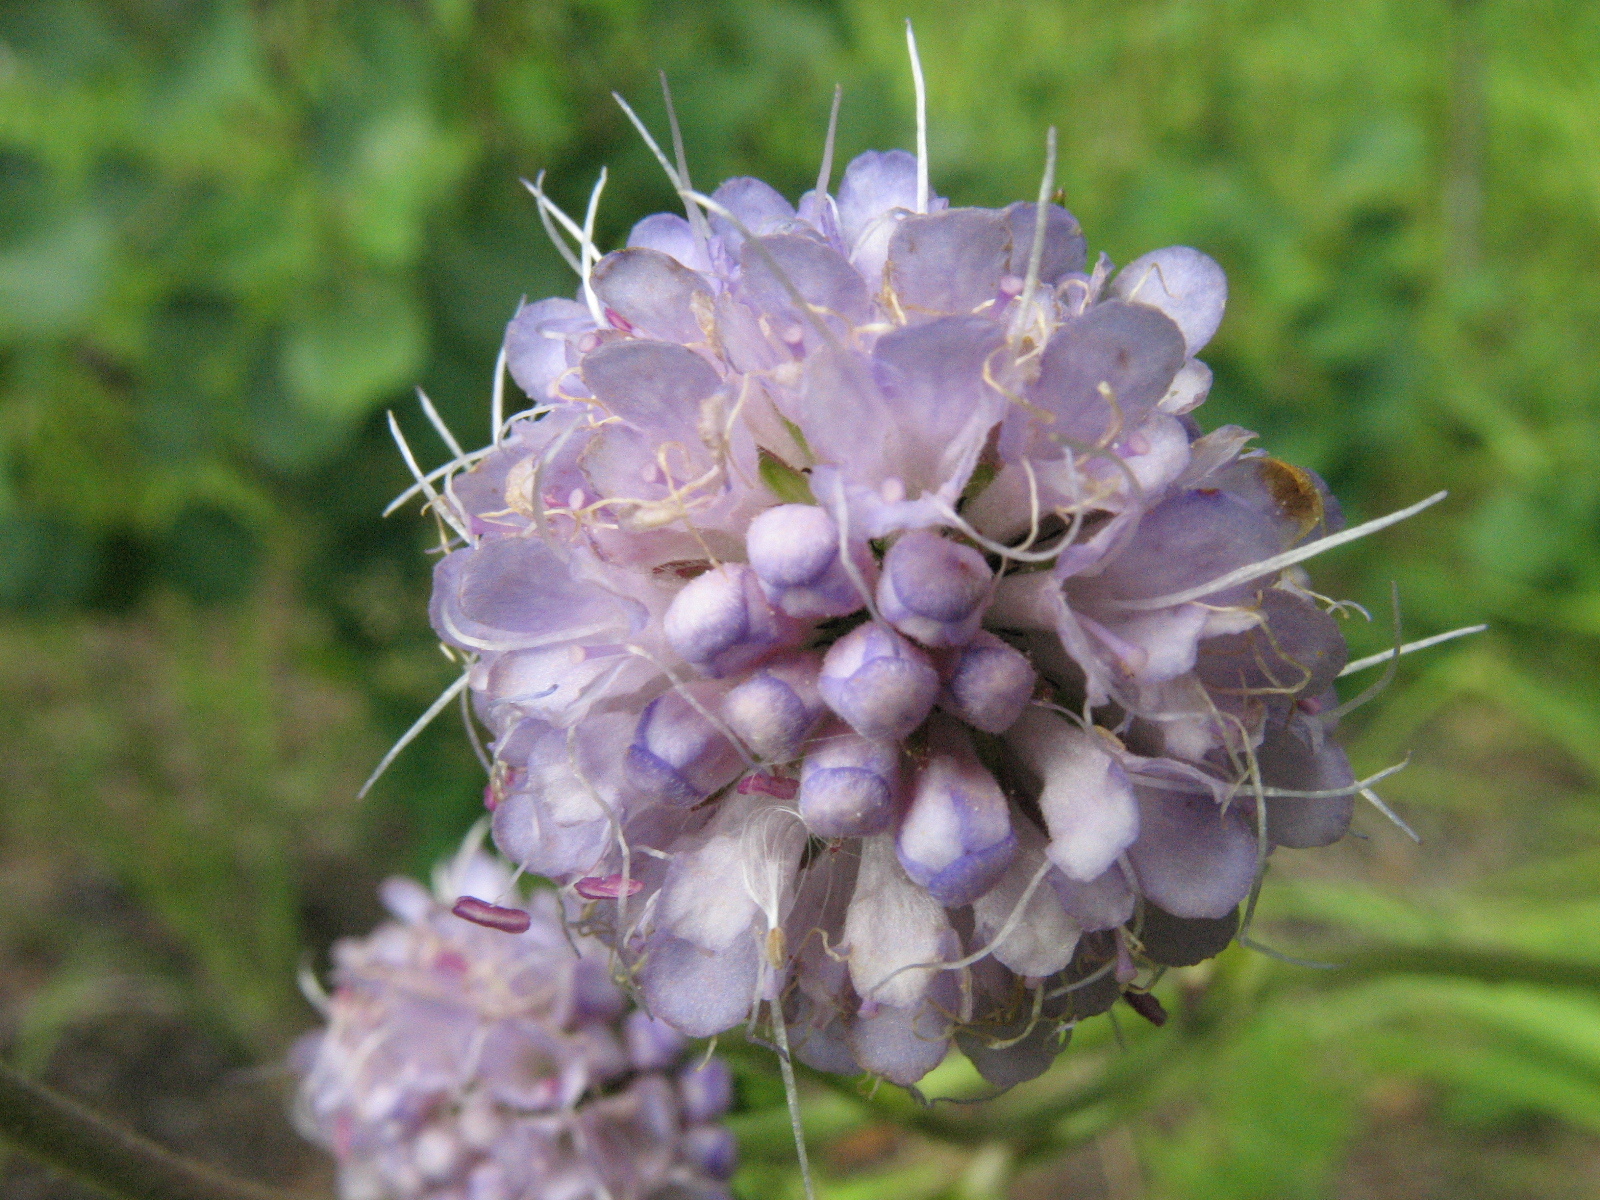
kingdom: Plantae
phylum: Tracheophyta
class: Magnoliopsida
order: Dipsacales
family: Caprifoliaceae
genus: Succisa
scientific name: Succisa pratensis
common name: Devil's-bit
